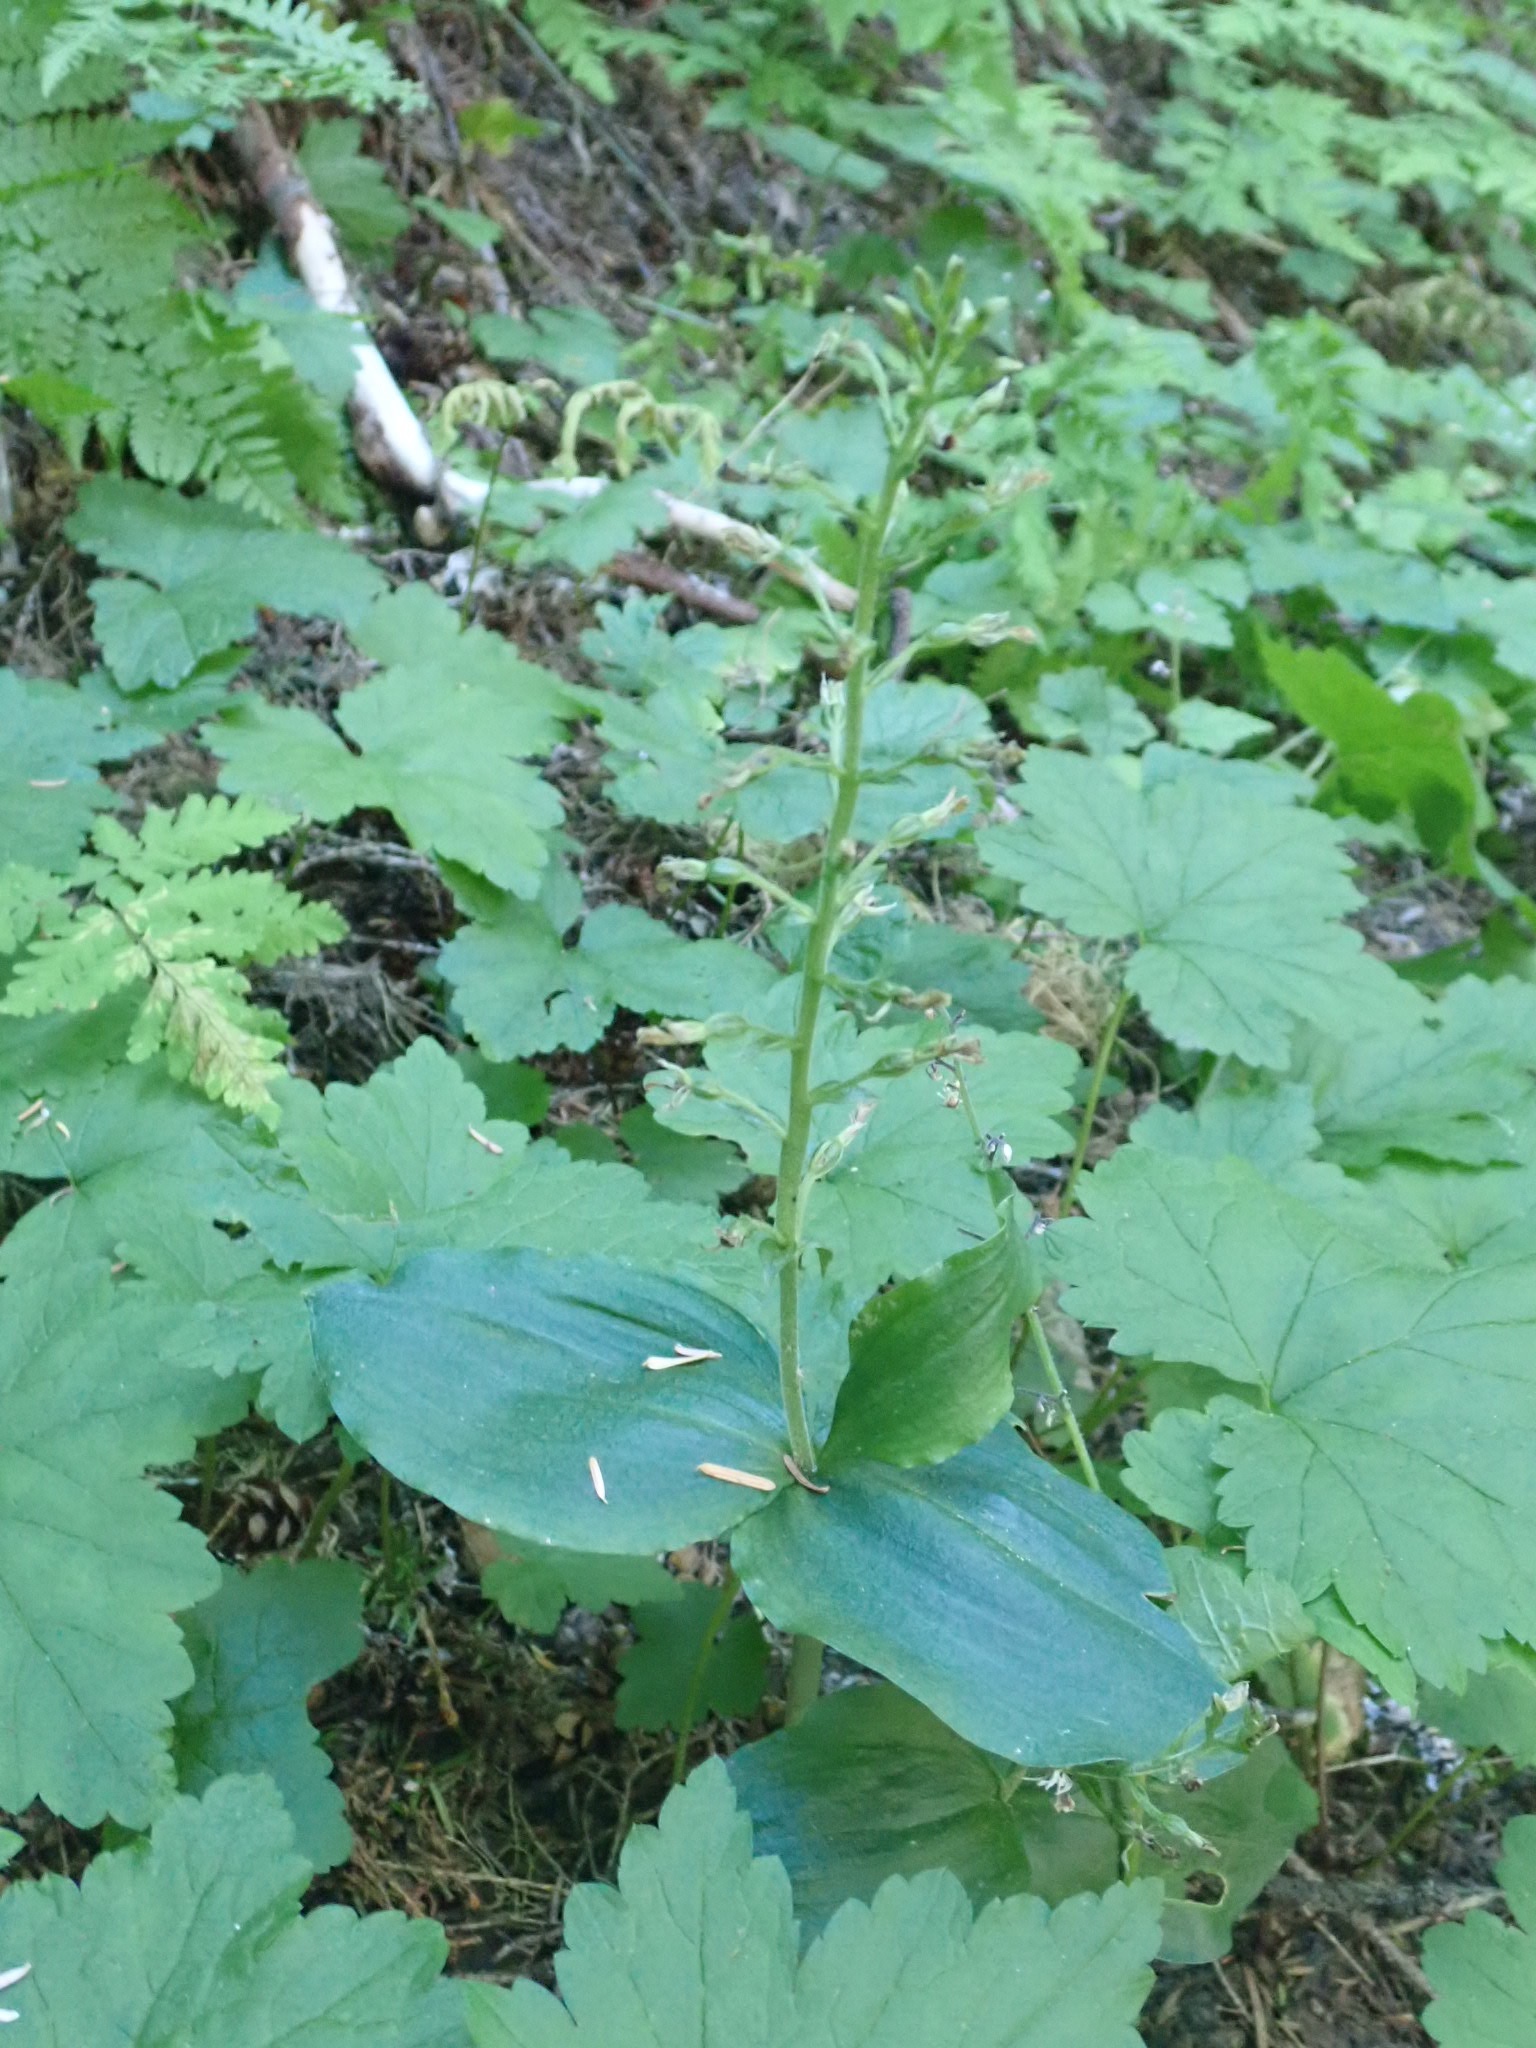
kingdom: Plantae
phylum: Tracheophyta
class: Liliopsida
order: Asparagales
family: Orchidaceae
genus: Neottia
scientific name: Neottia banksiana
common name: Northwestern twayblade
